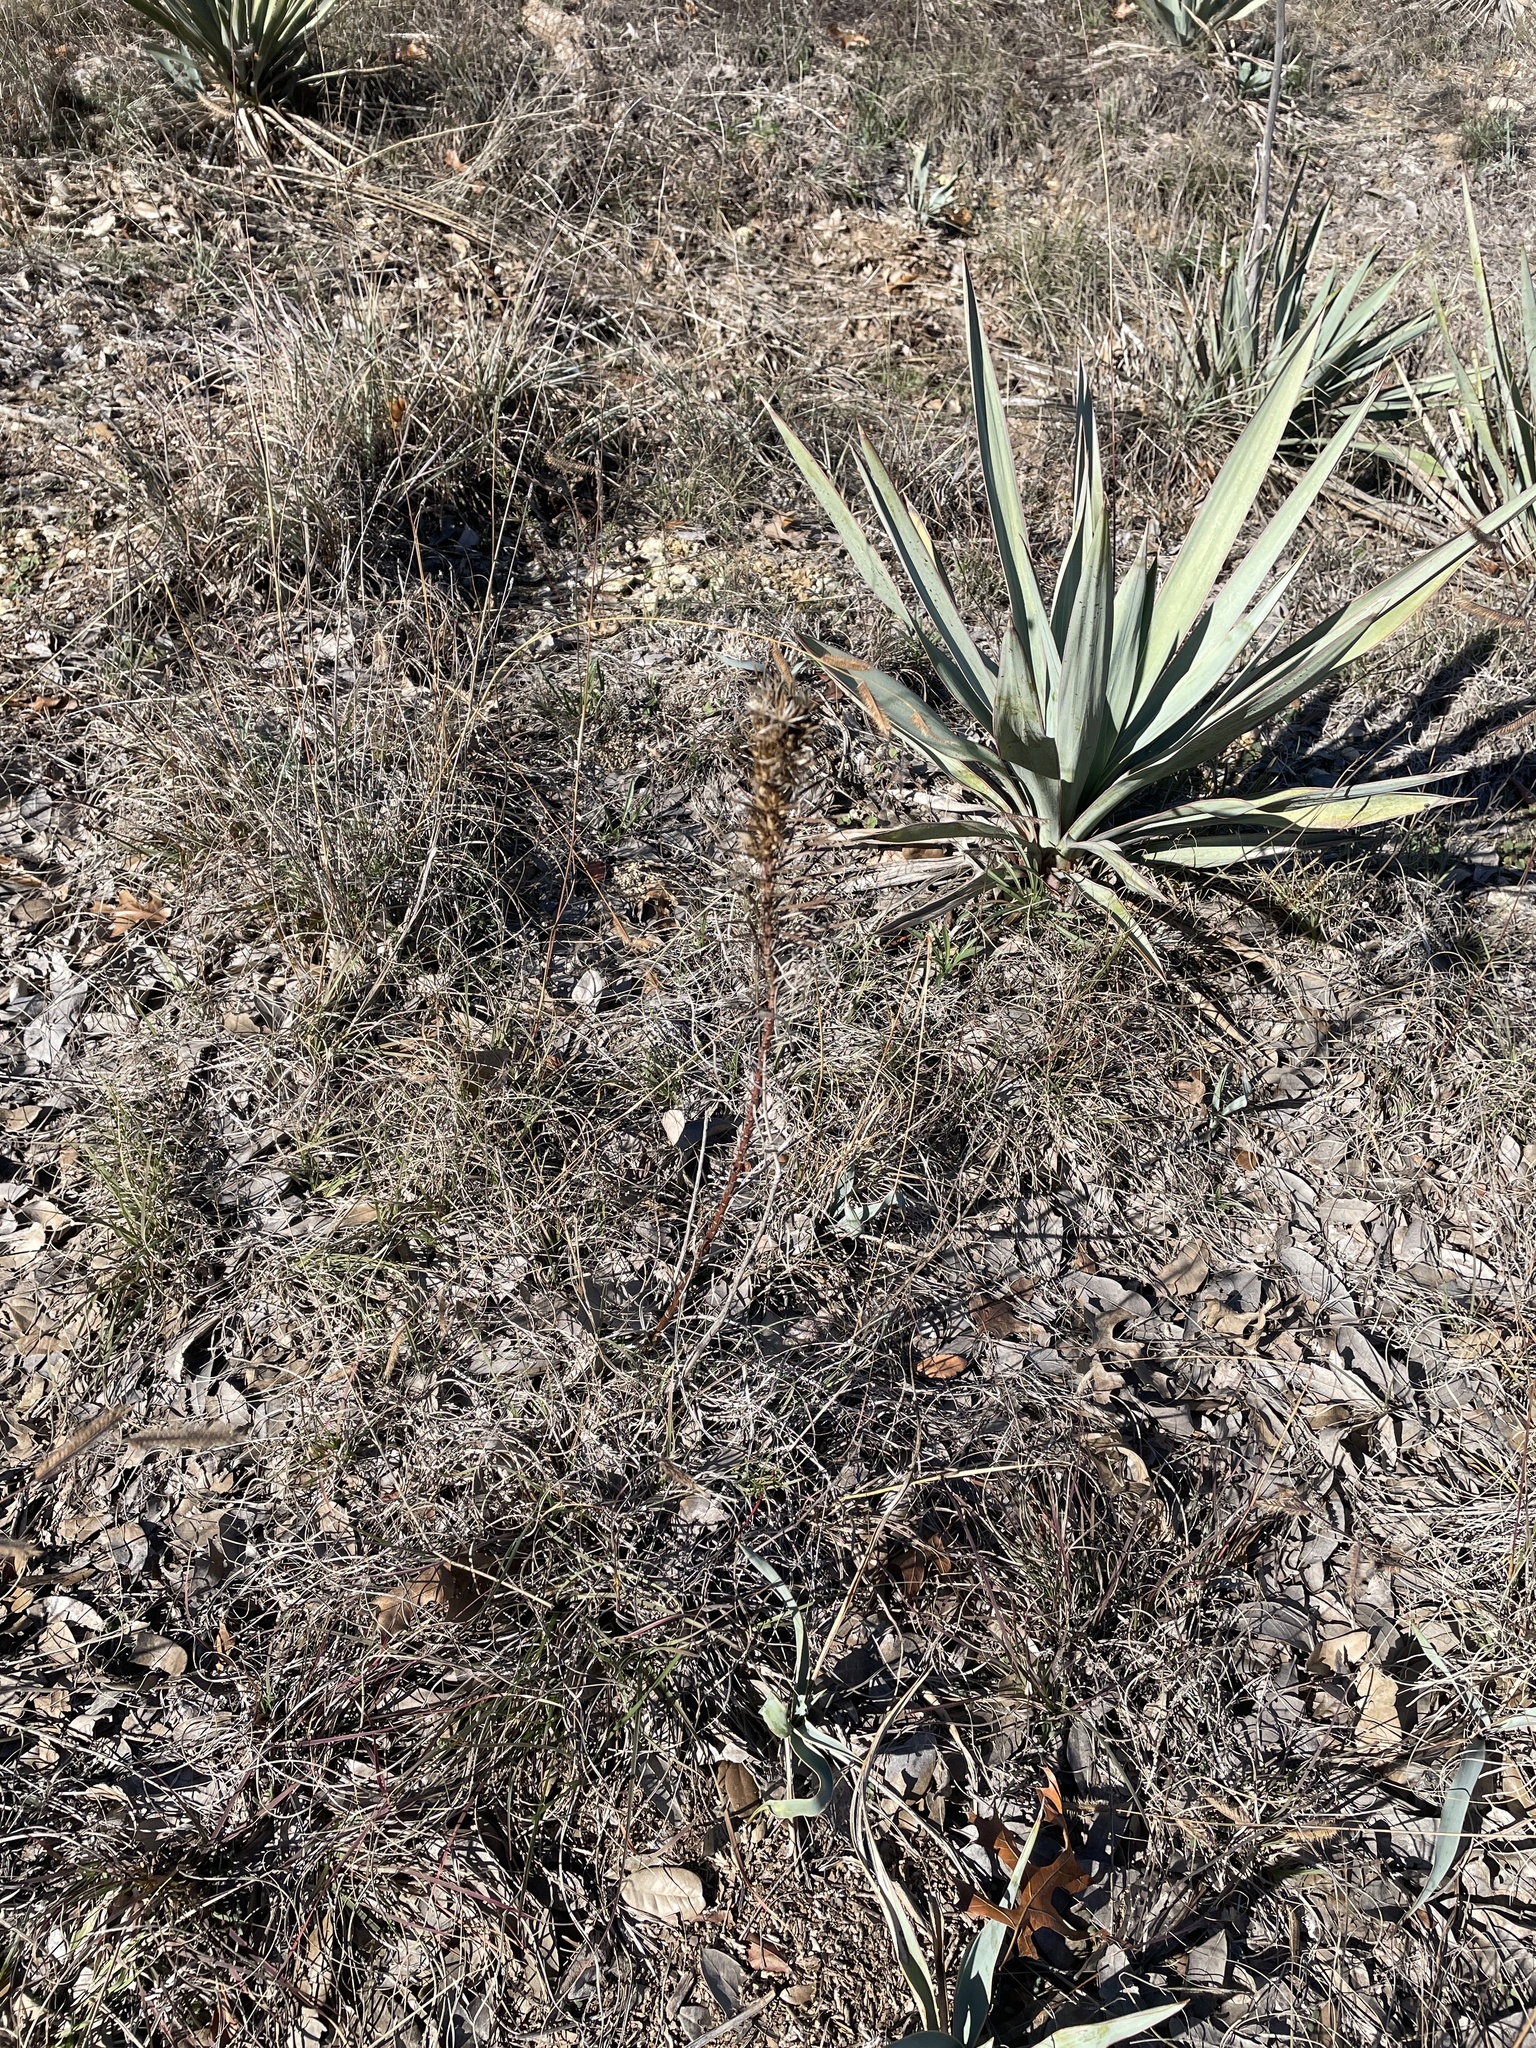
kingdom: Plantae
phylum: Tracheophyta
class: Magnoliopsida
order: Asterales
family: Asteraceae
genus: Liatris
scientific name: Liatris punctata
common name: Dotted gayfeather
